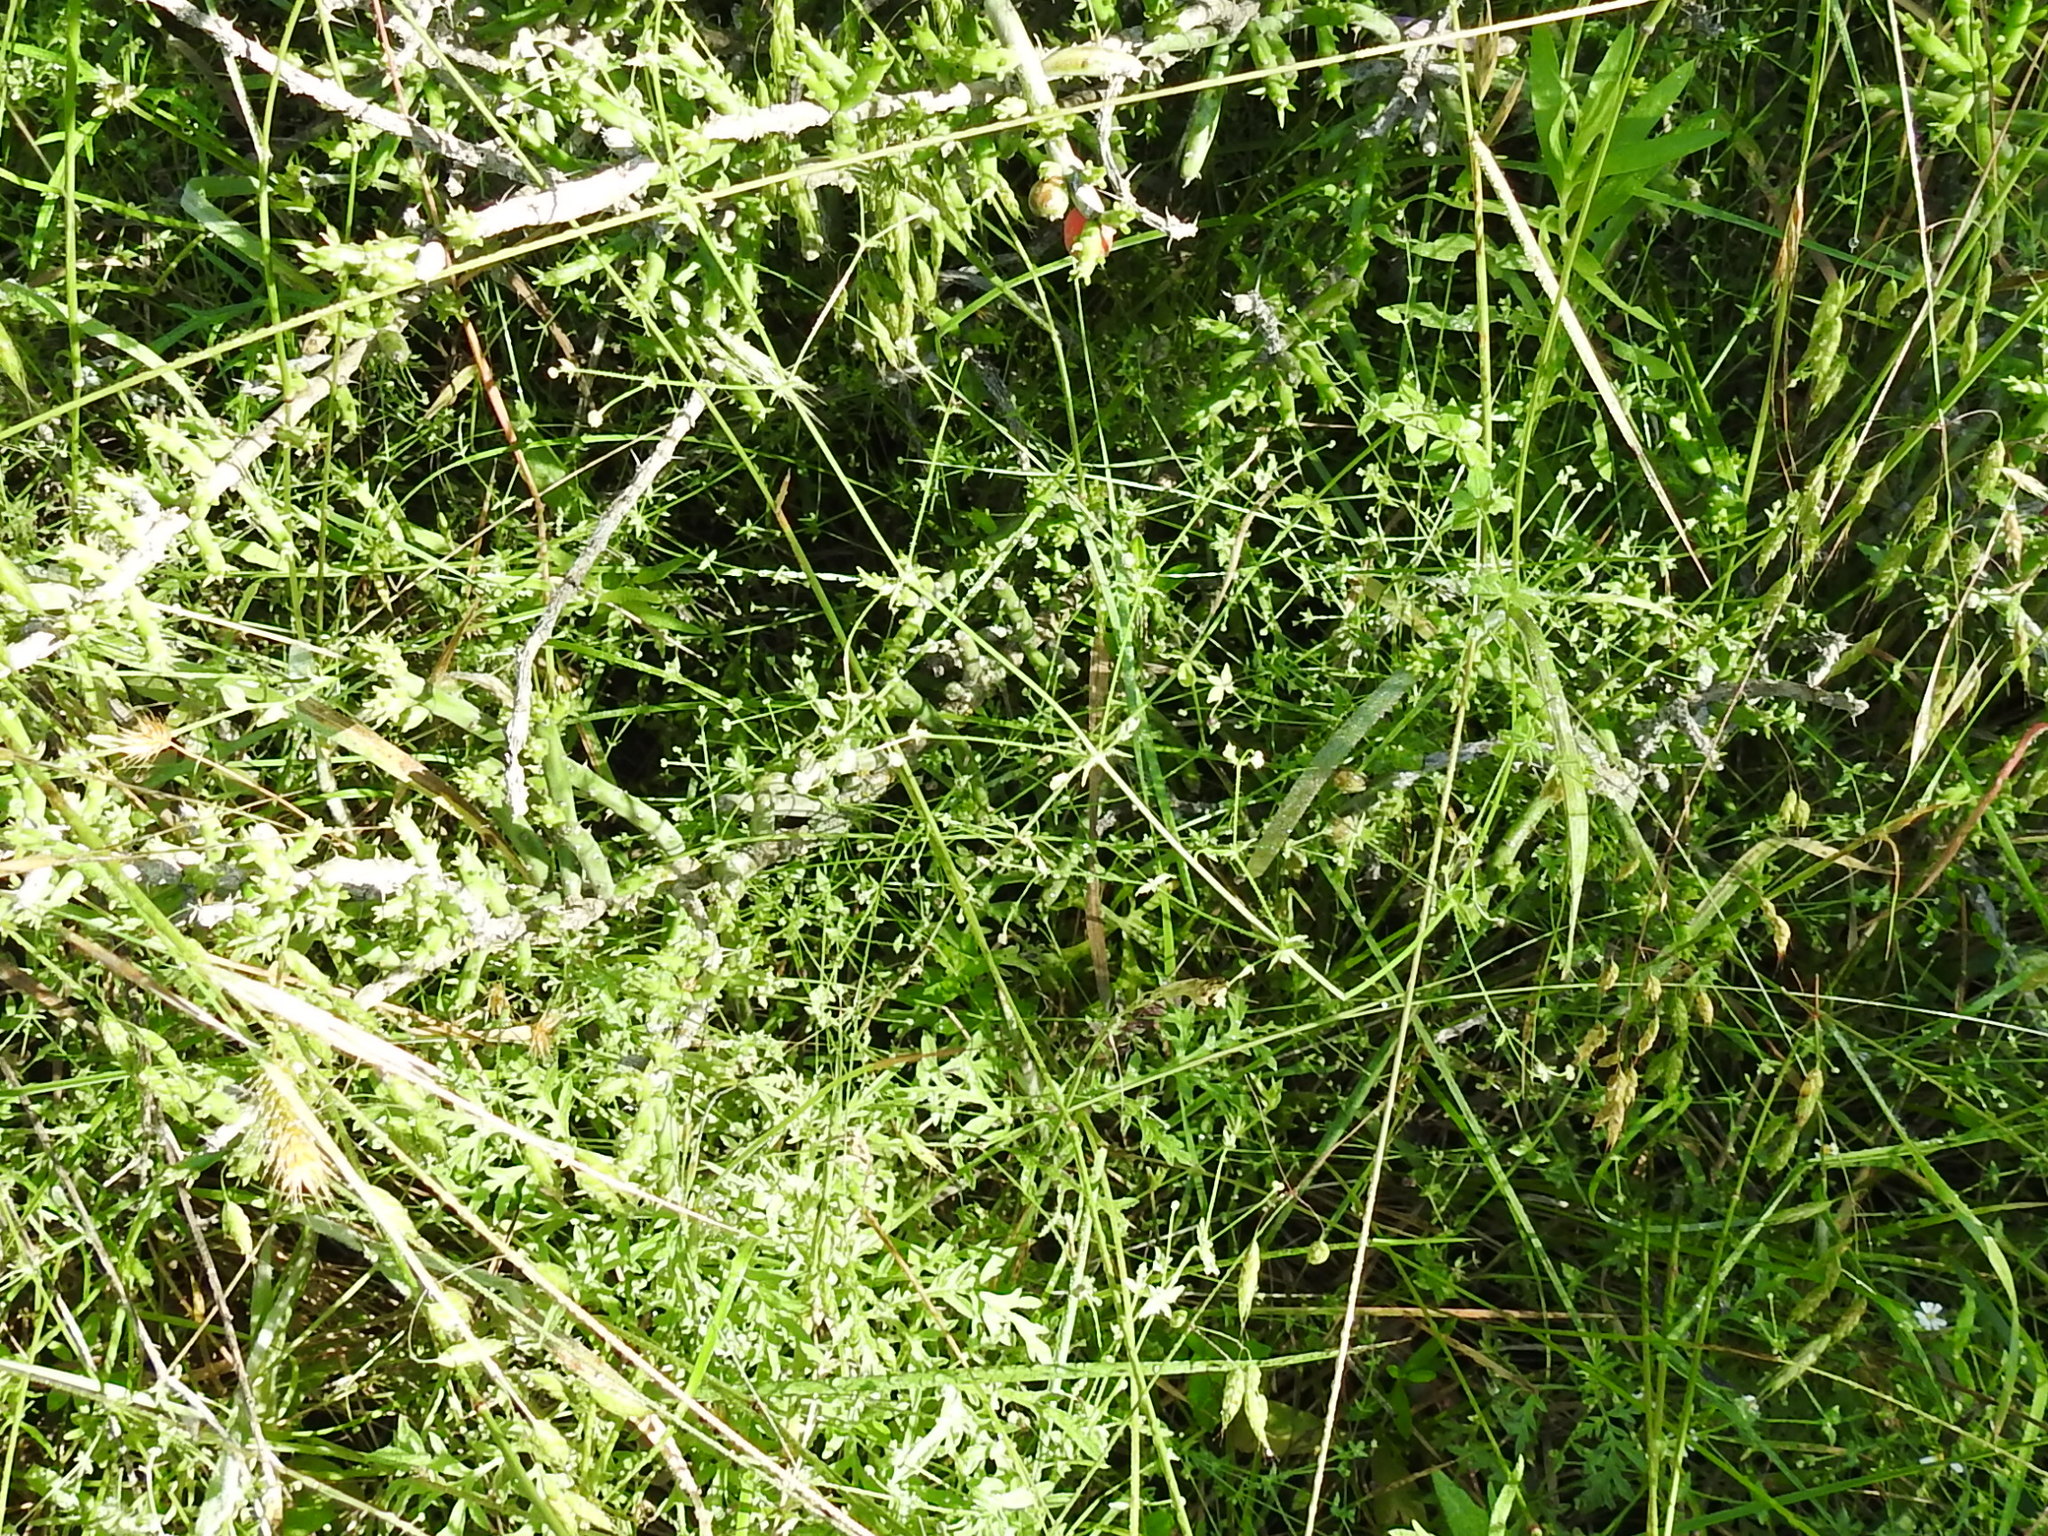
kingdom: Plantae
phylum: Tracheophyta
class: Magnoliopsida
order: Gentianales
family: Rubiaceae
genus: Galium
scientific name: Galium texense
